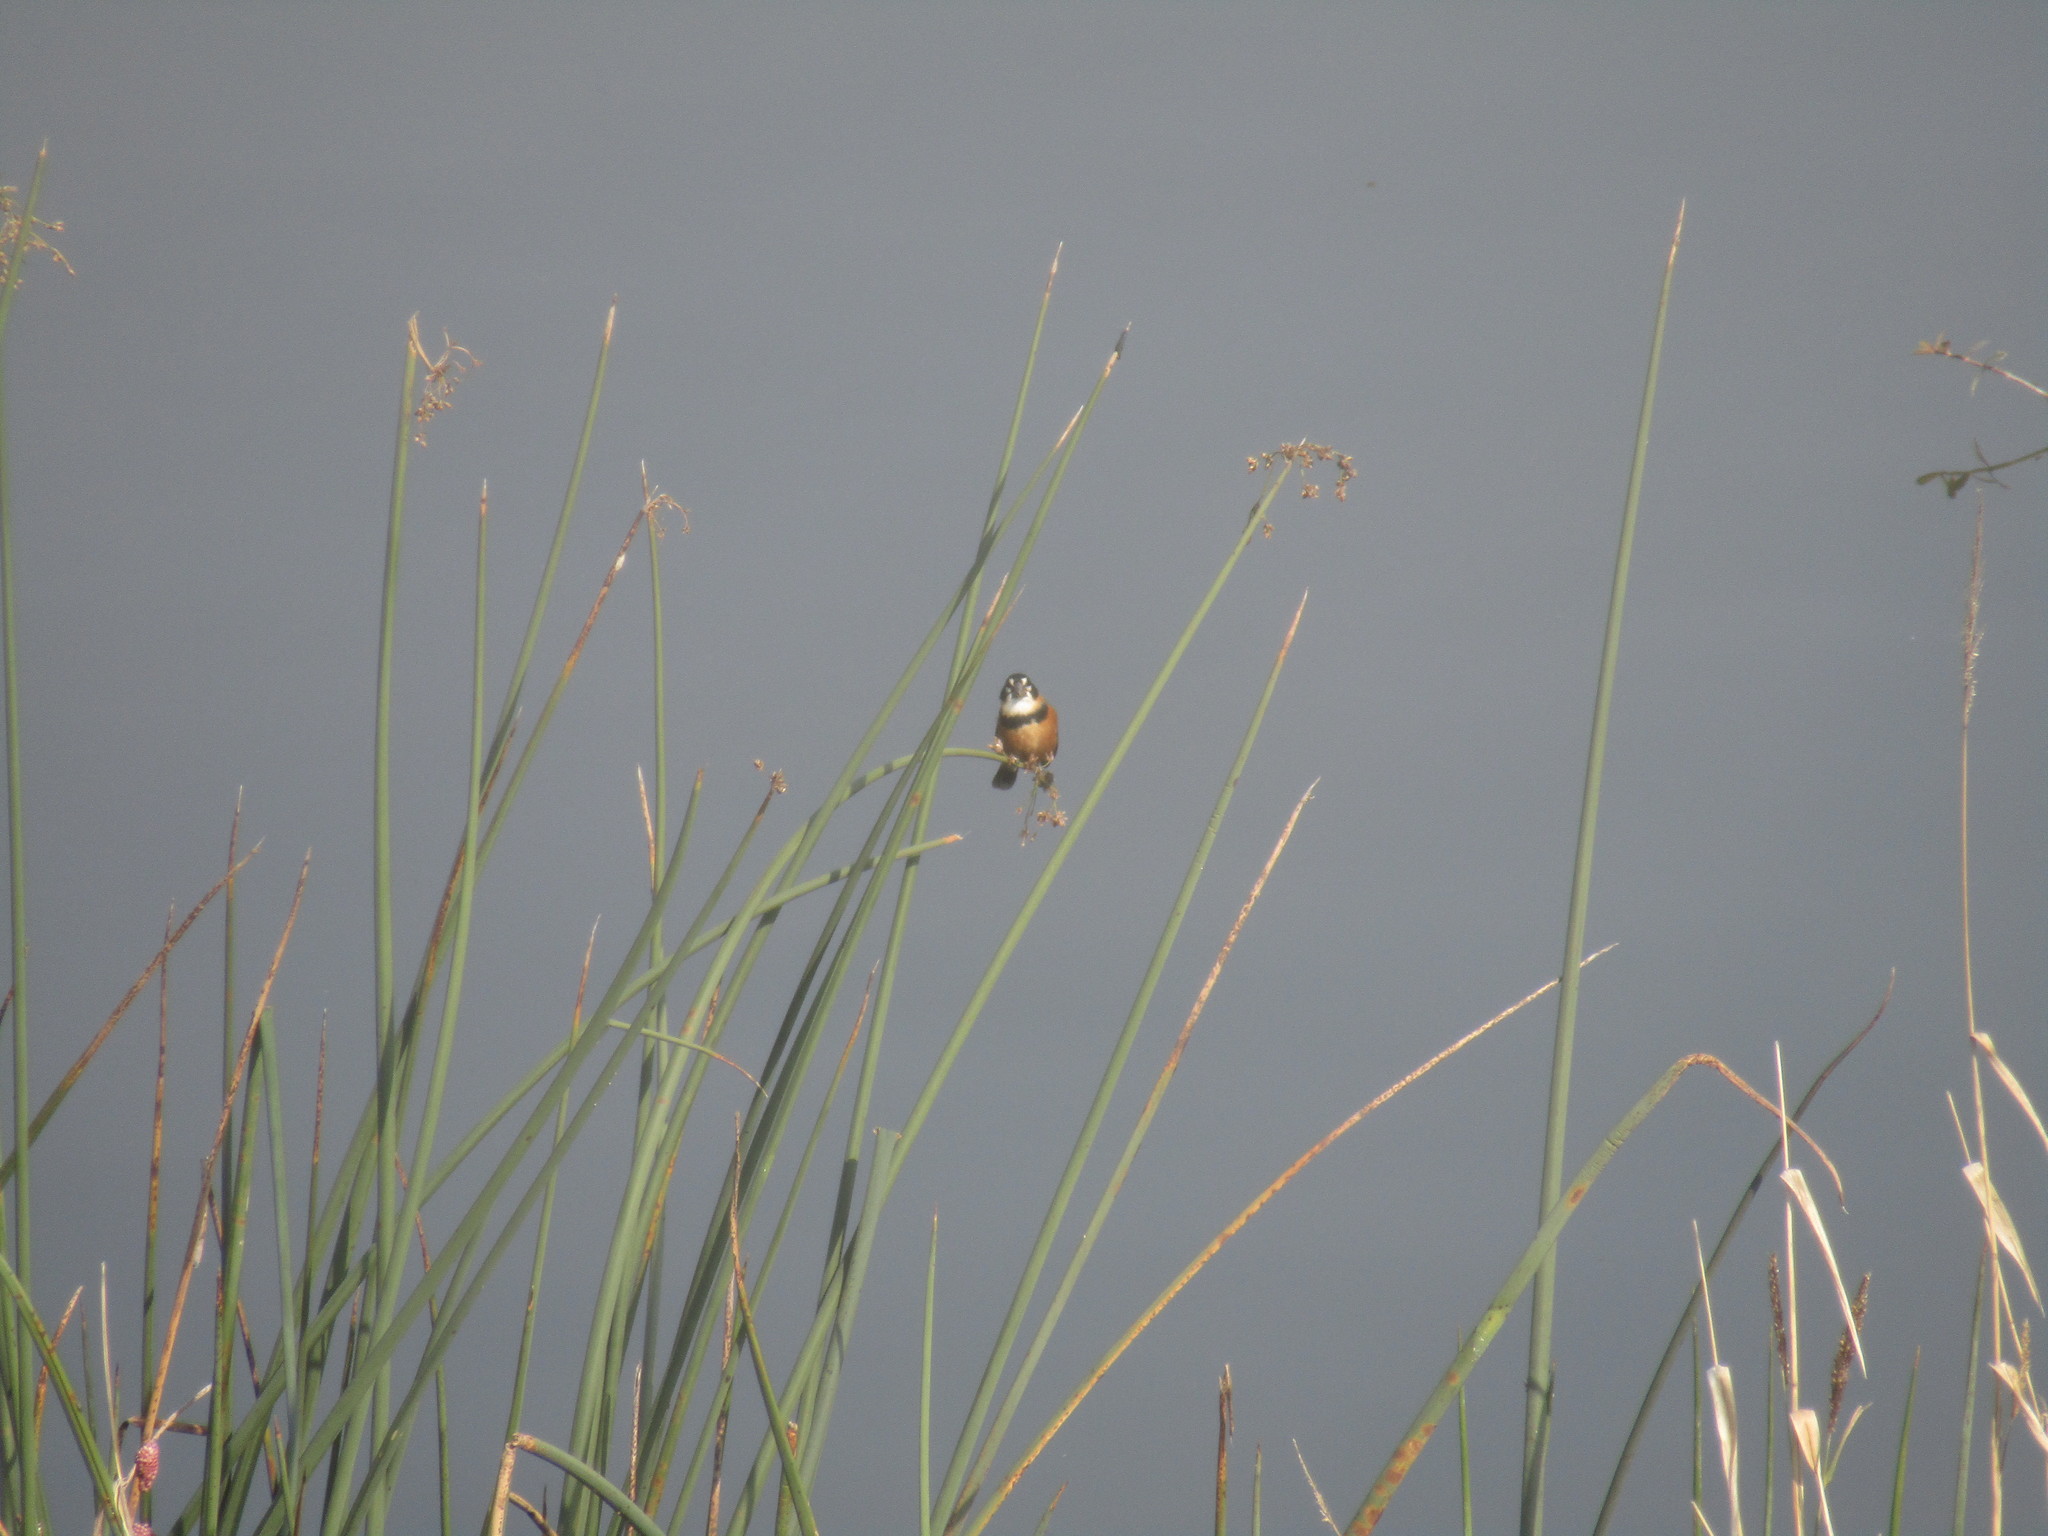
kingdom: Animalia
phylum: Chordata
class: Aves
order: Passeriformes
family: Thraupidae
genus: Sporophila
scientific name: Sporophila collaris
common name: Rusty-collared seedeater
